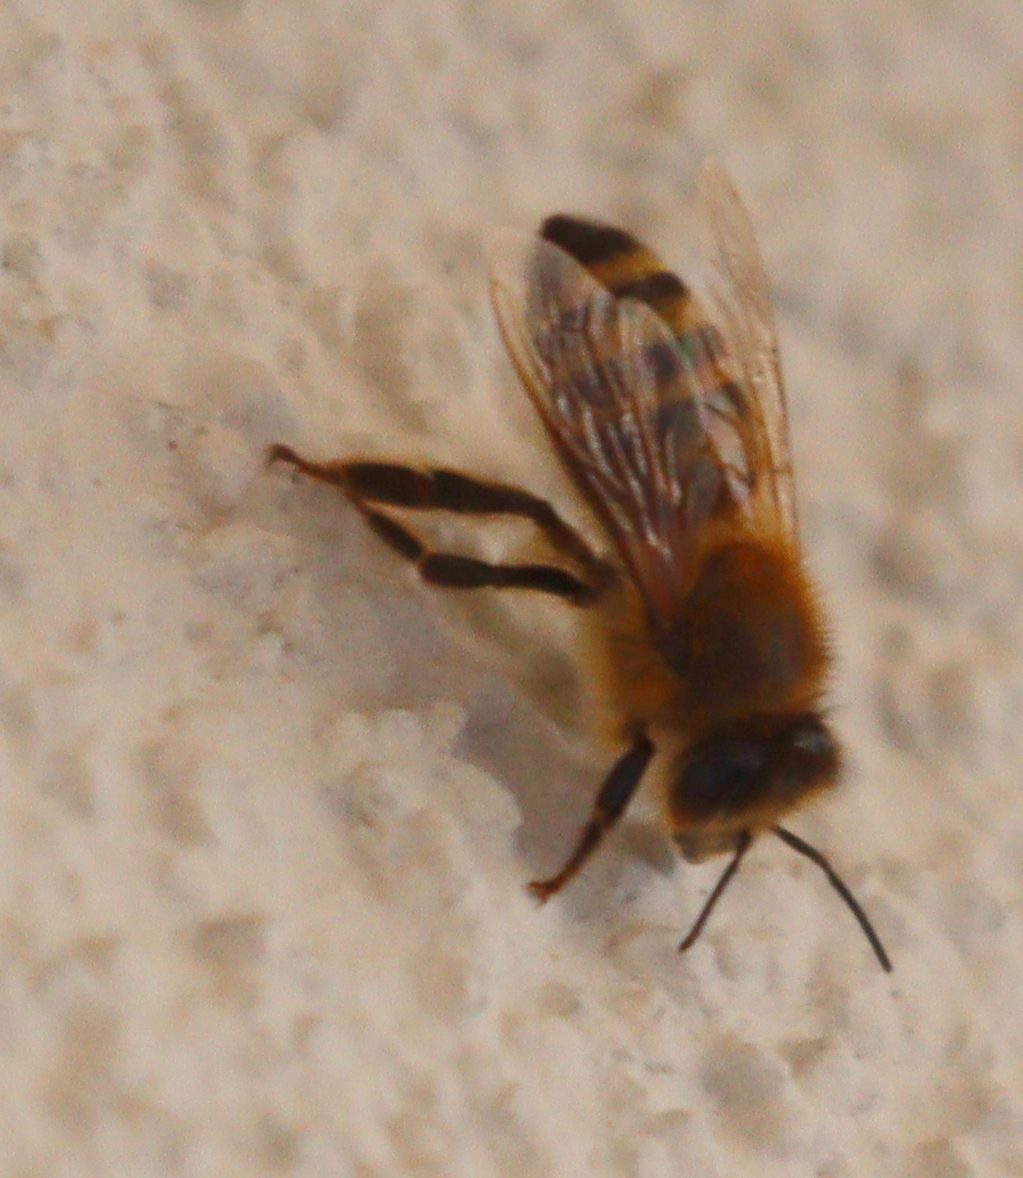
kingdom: Animalia
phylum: Arthropoda
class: Insecta
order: Hymenoptera
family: Apidae
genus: Apis
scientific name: Apis mellifera
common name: Honey bee
